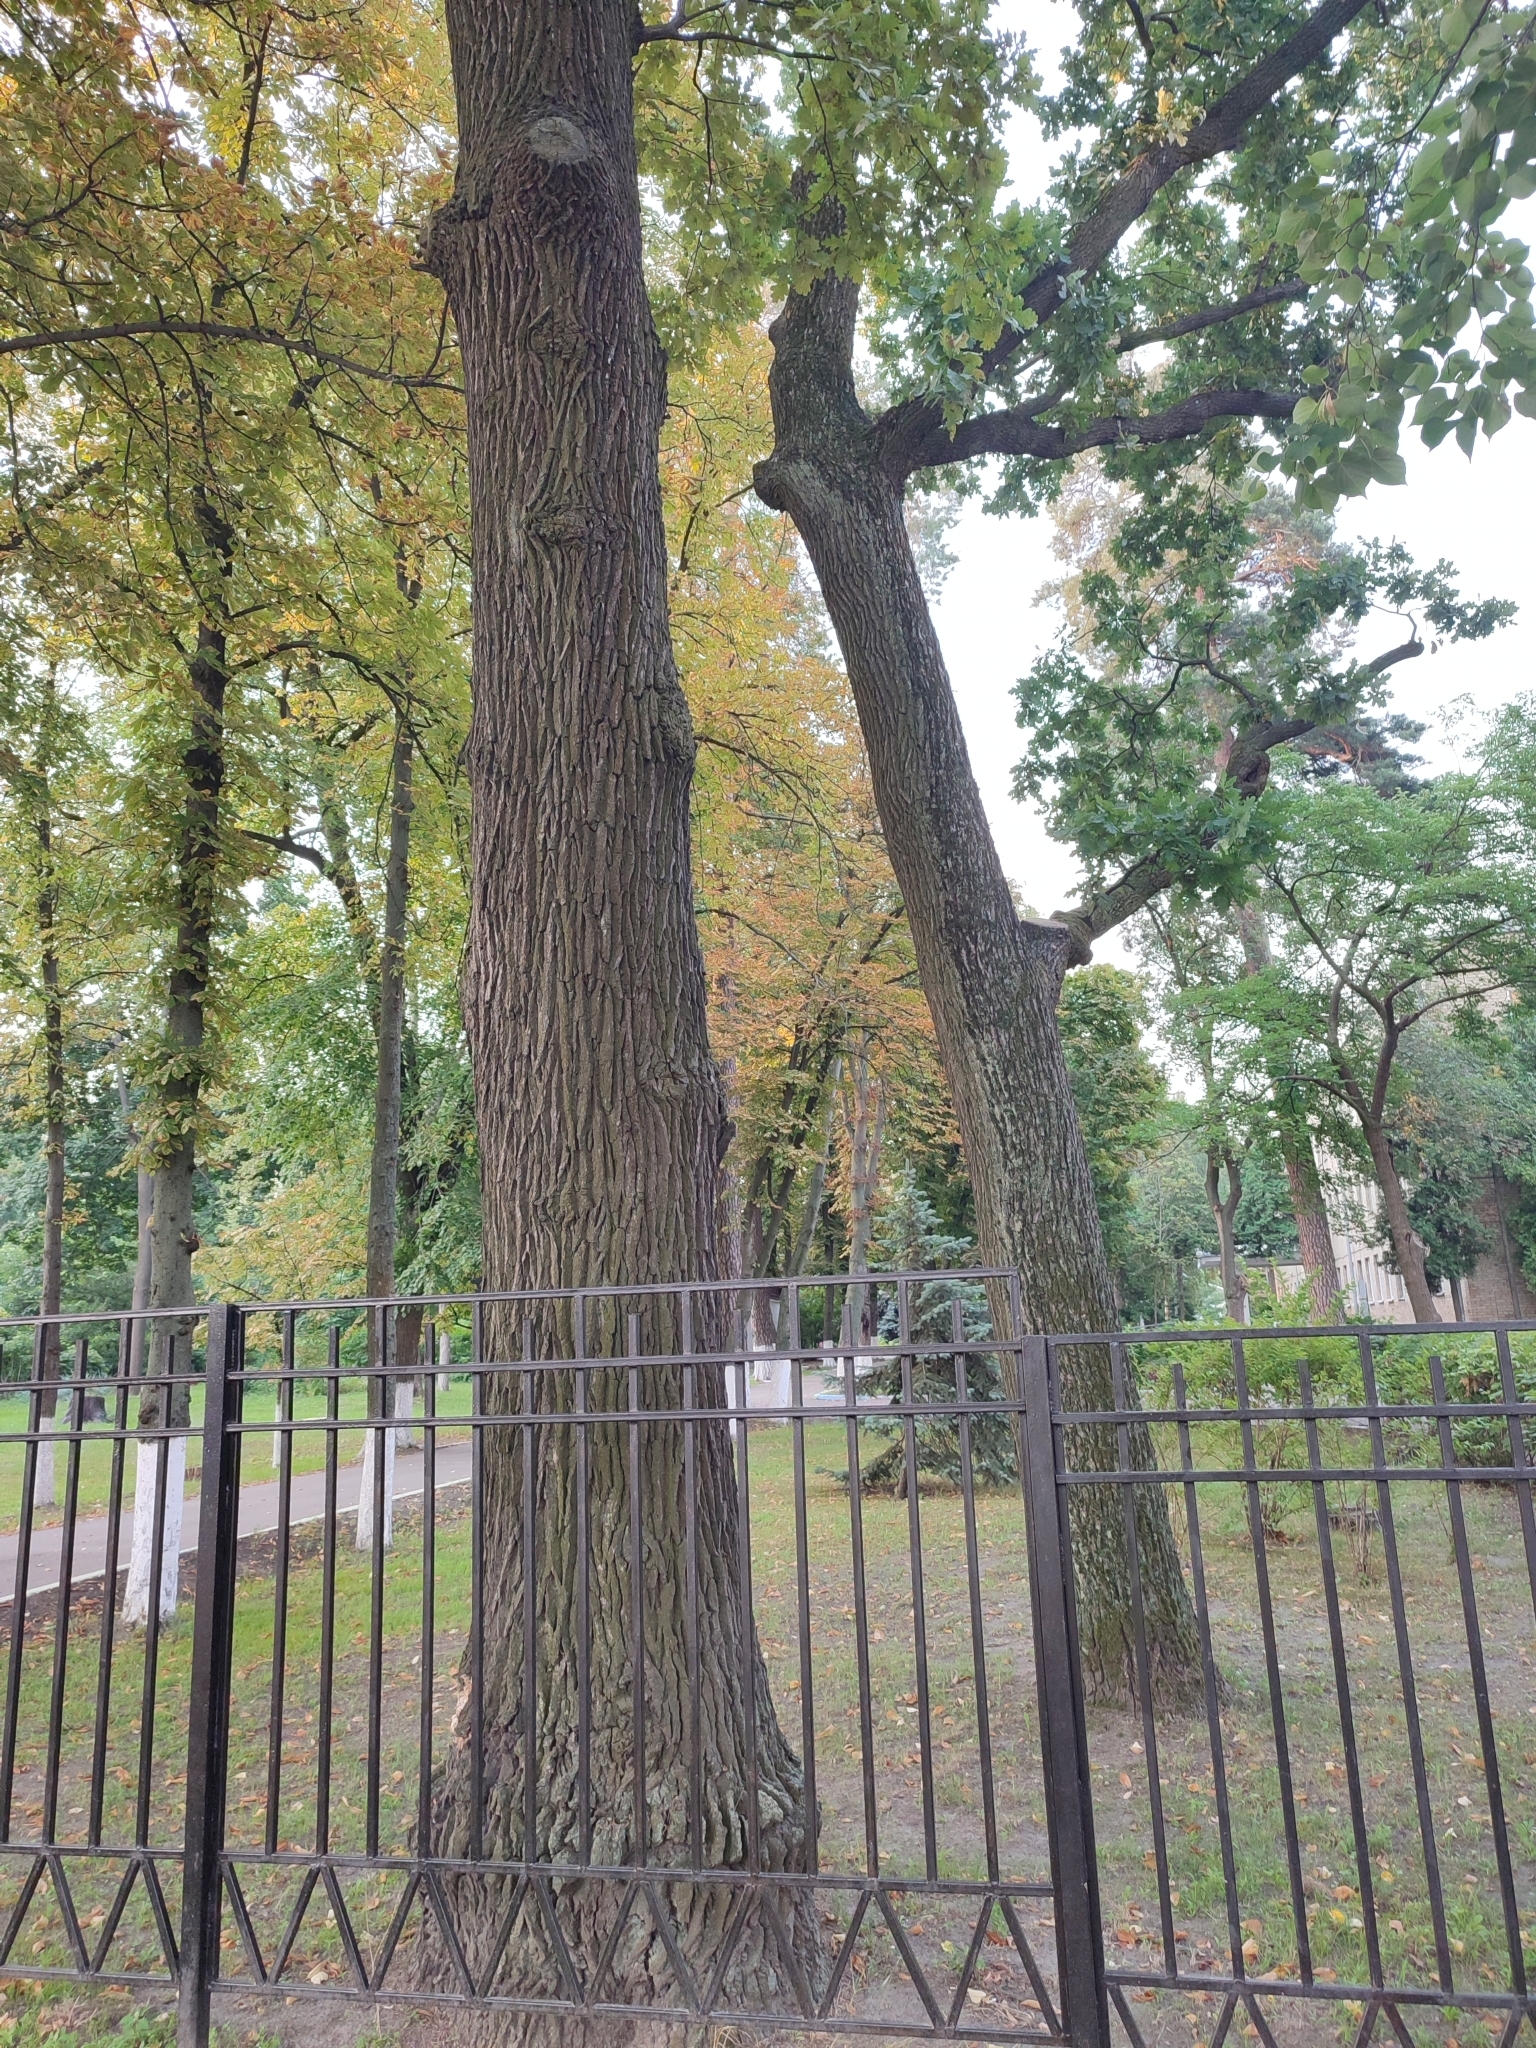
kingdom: Plantae
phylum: Tracheophyta
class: Magnoliopsida
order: Fagales
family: Fagaceae
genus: Quercus
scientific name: Quercus robur
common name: Pedunculate oak
